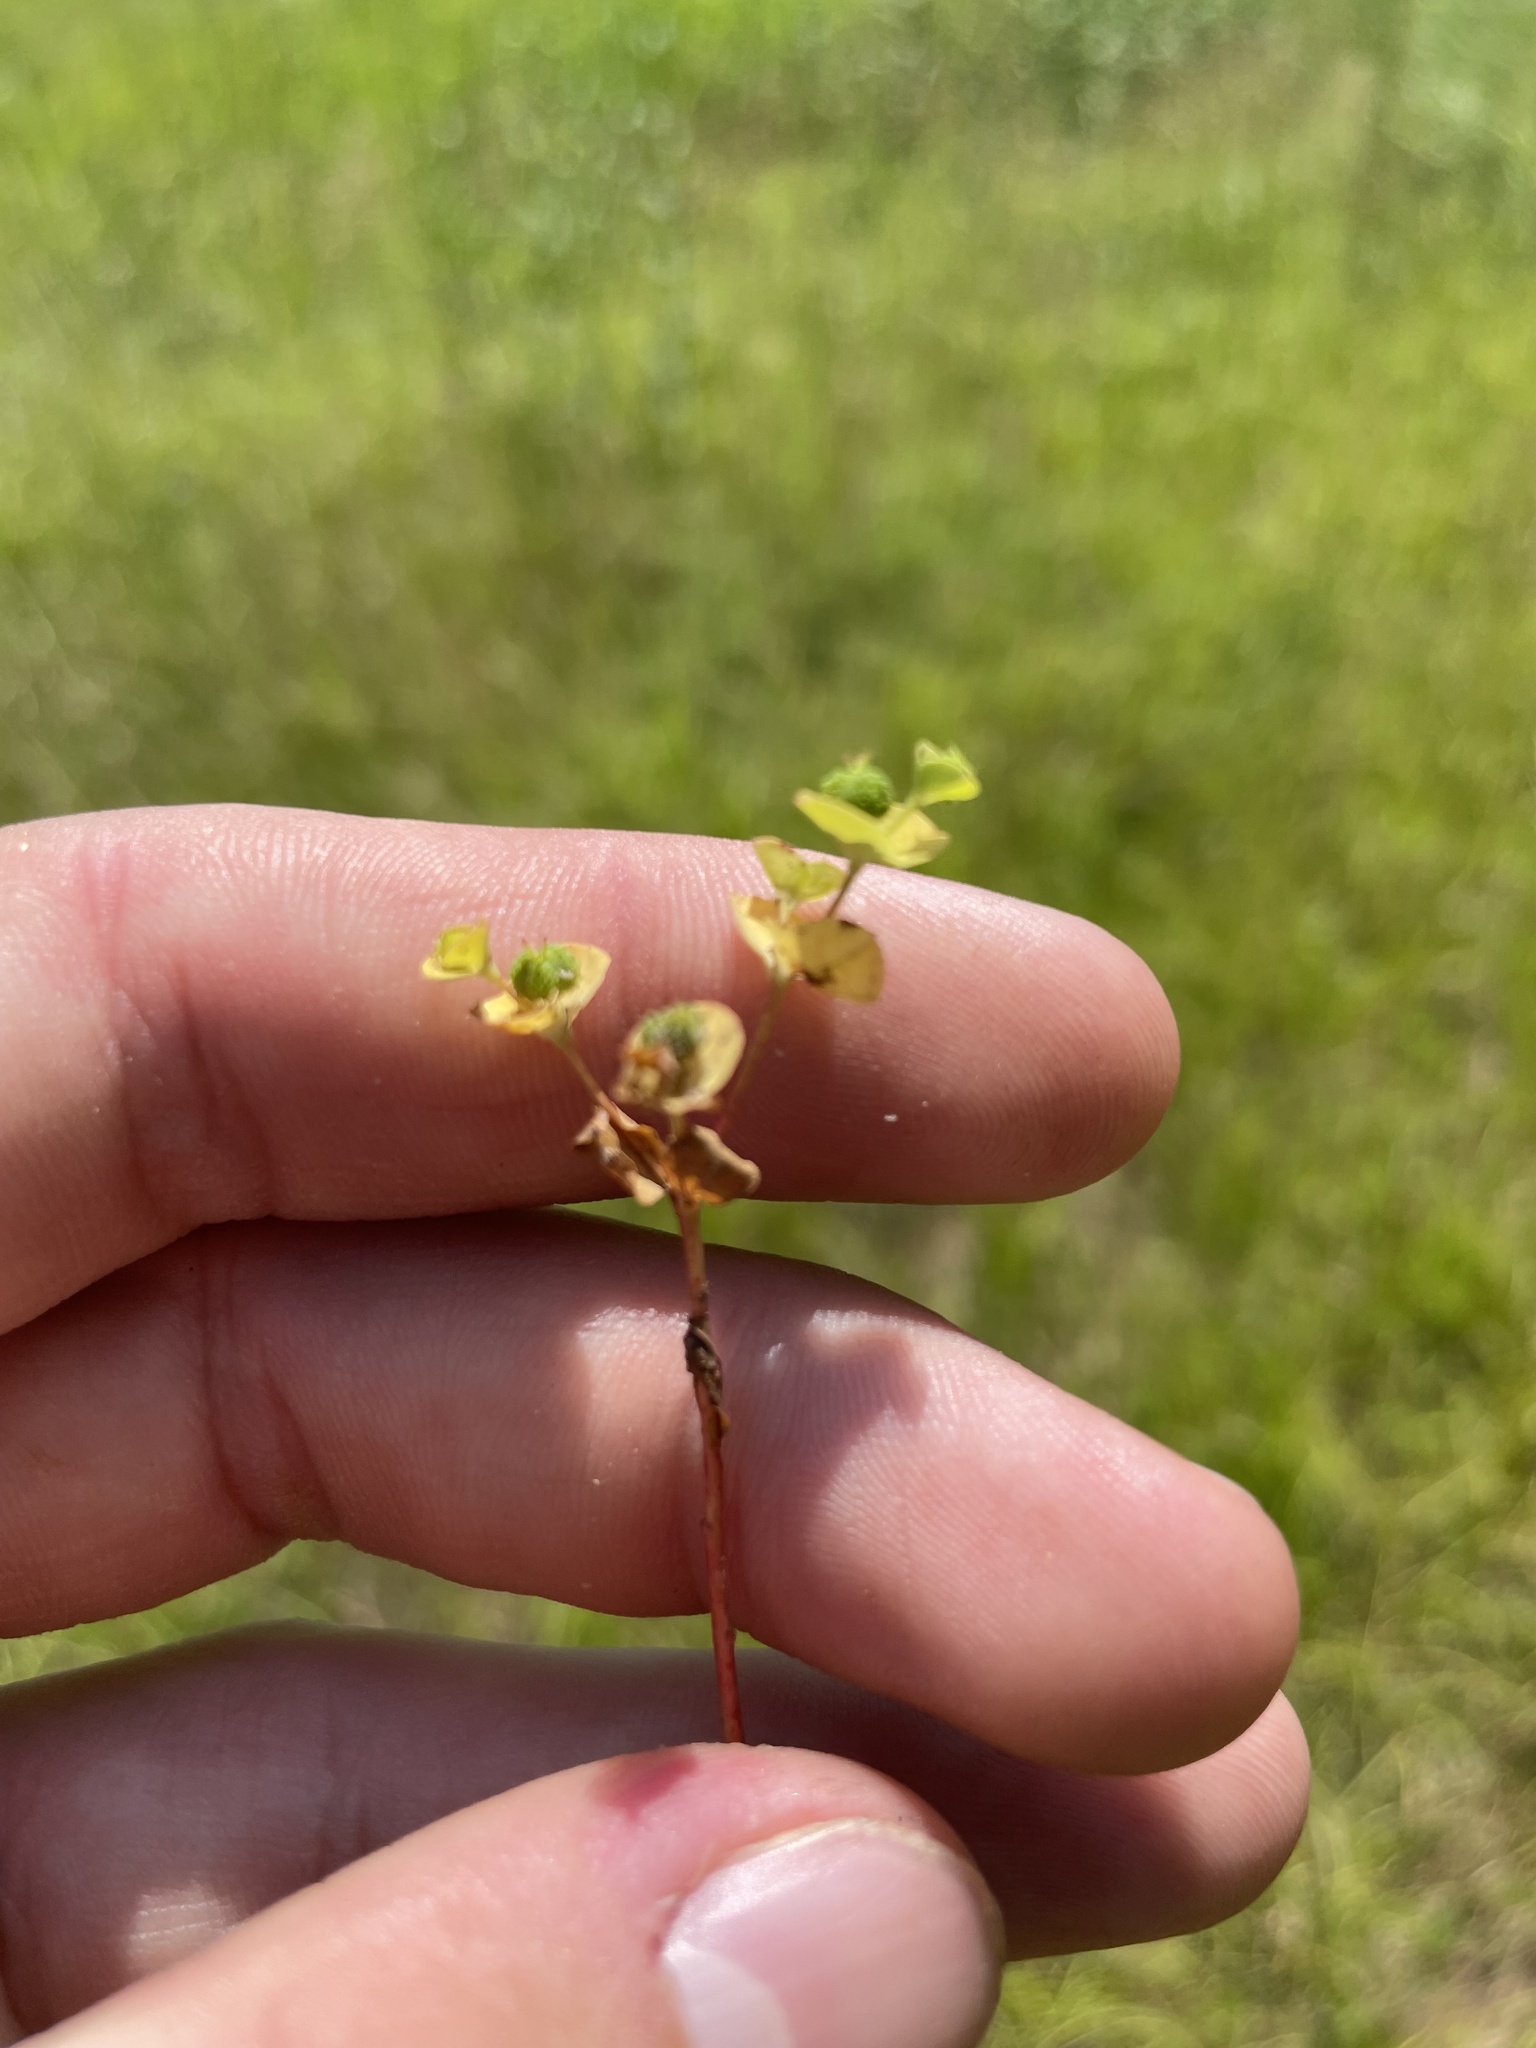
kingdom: Plantae
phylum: Tracheophyta
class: Magnoliopsida
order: Malpighiales
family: Euphorbiaceae
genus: Euphorbia
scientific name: Euphorbia spathulata
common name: Blunt spurge
